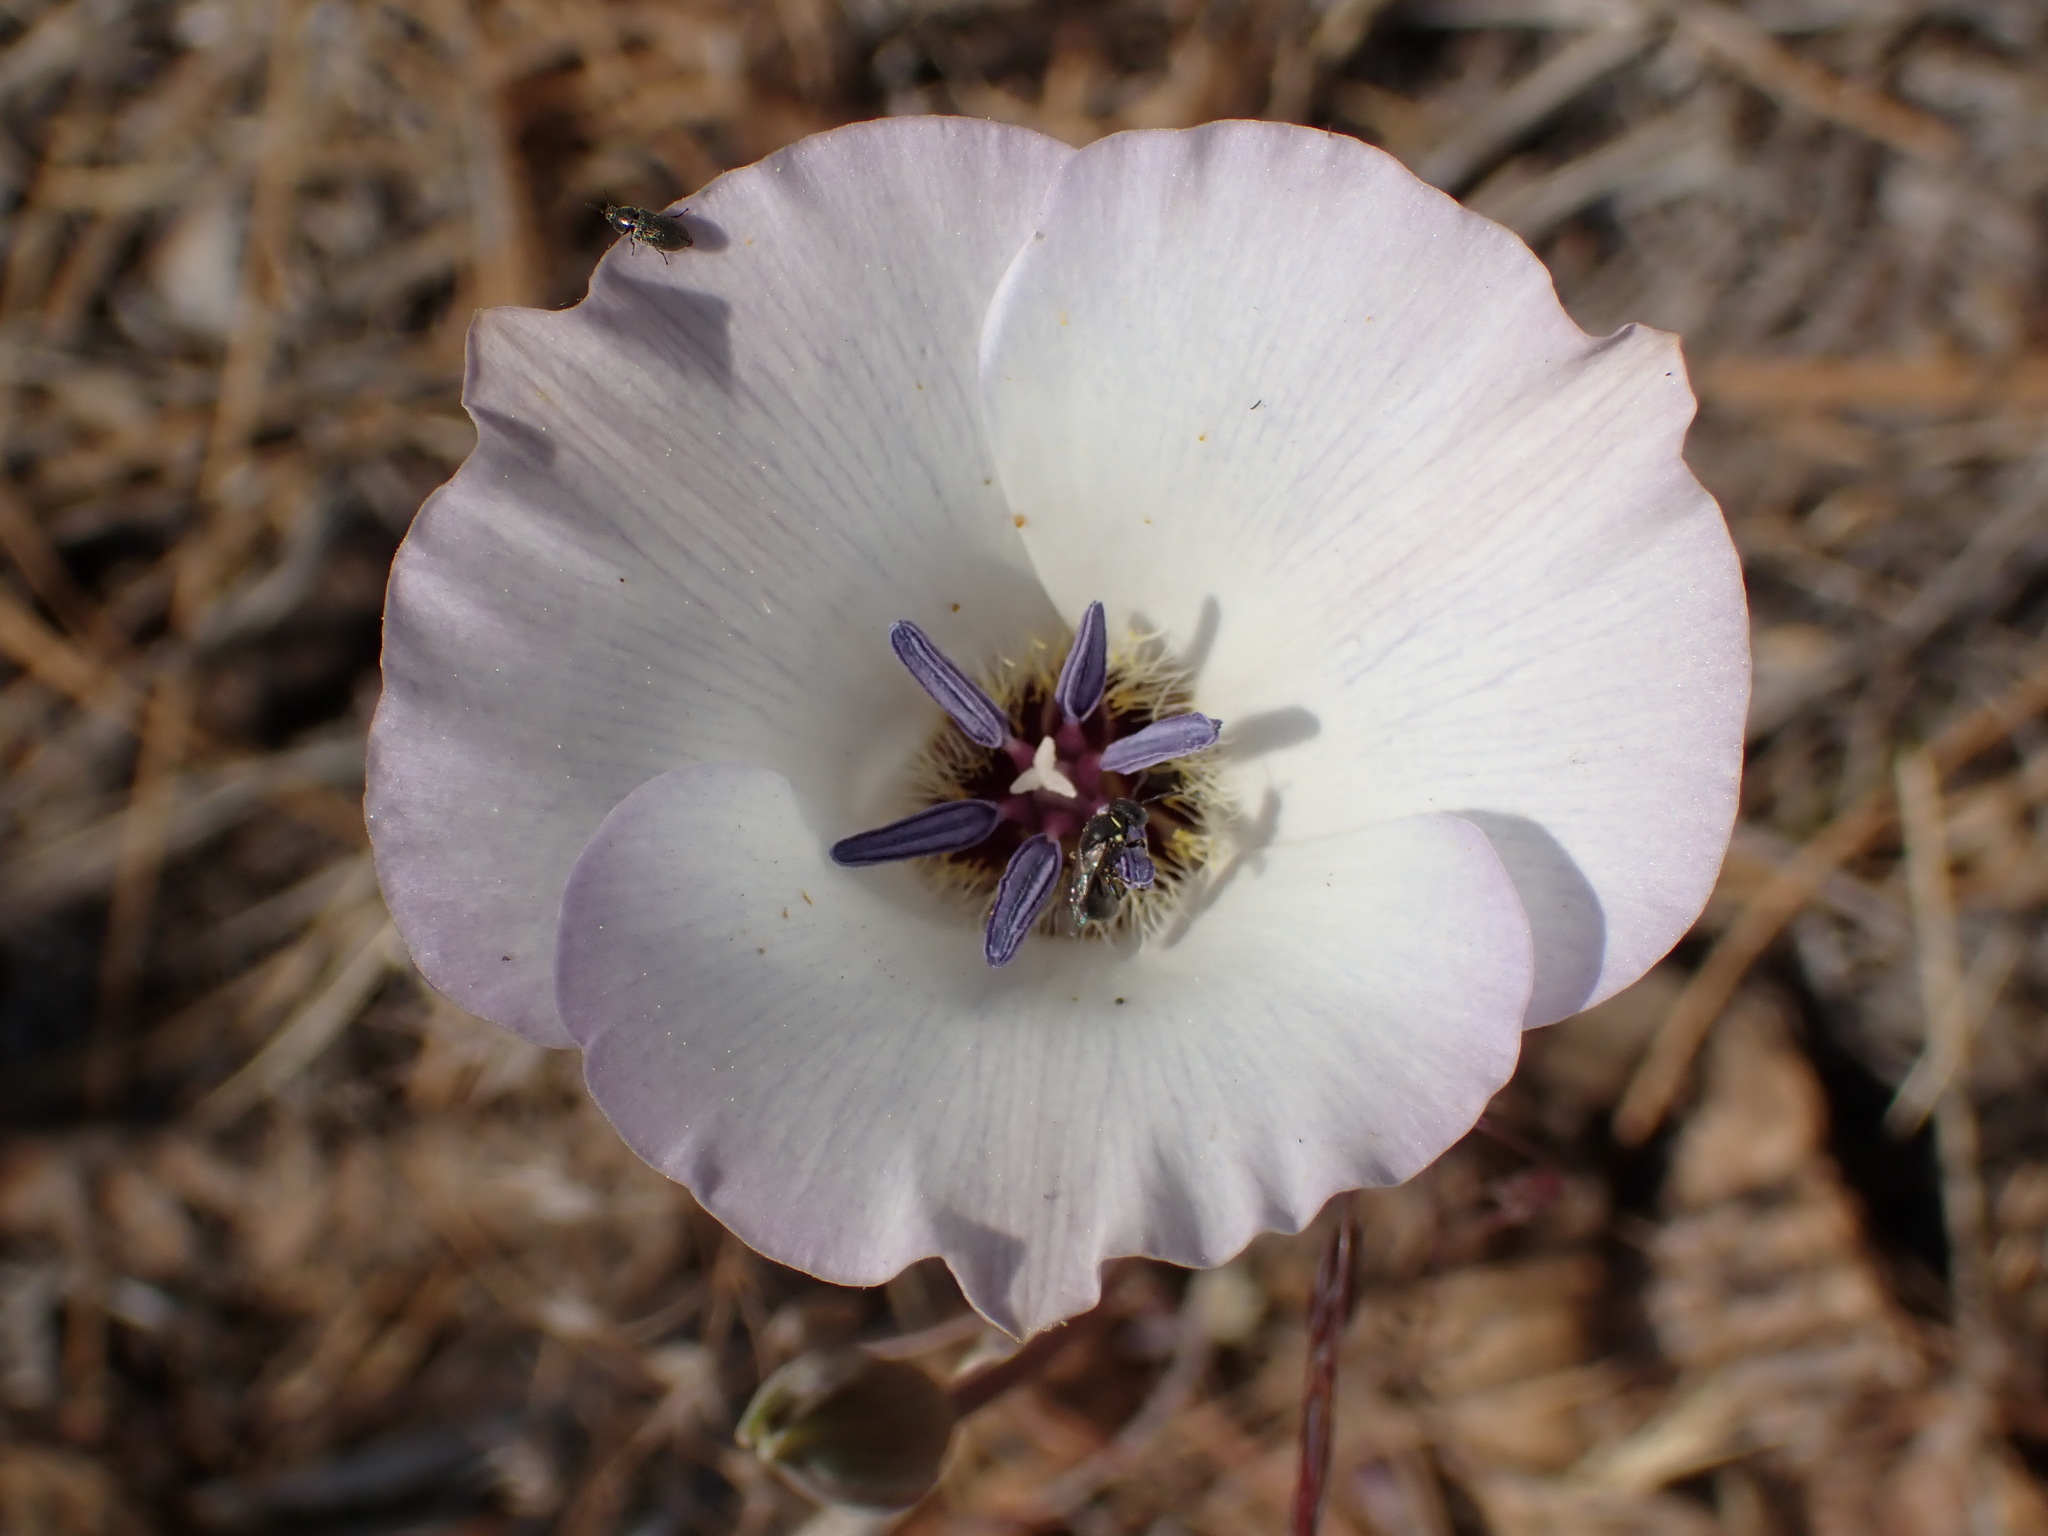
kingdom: Plantae
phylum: Tracheophyta
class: Liliopsida
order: Liliales
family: Liliaceae
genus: Calochortus
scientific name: Calochortus invenustus
